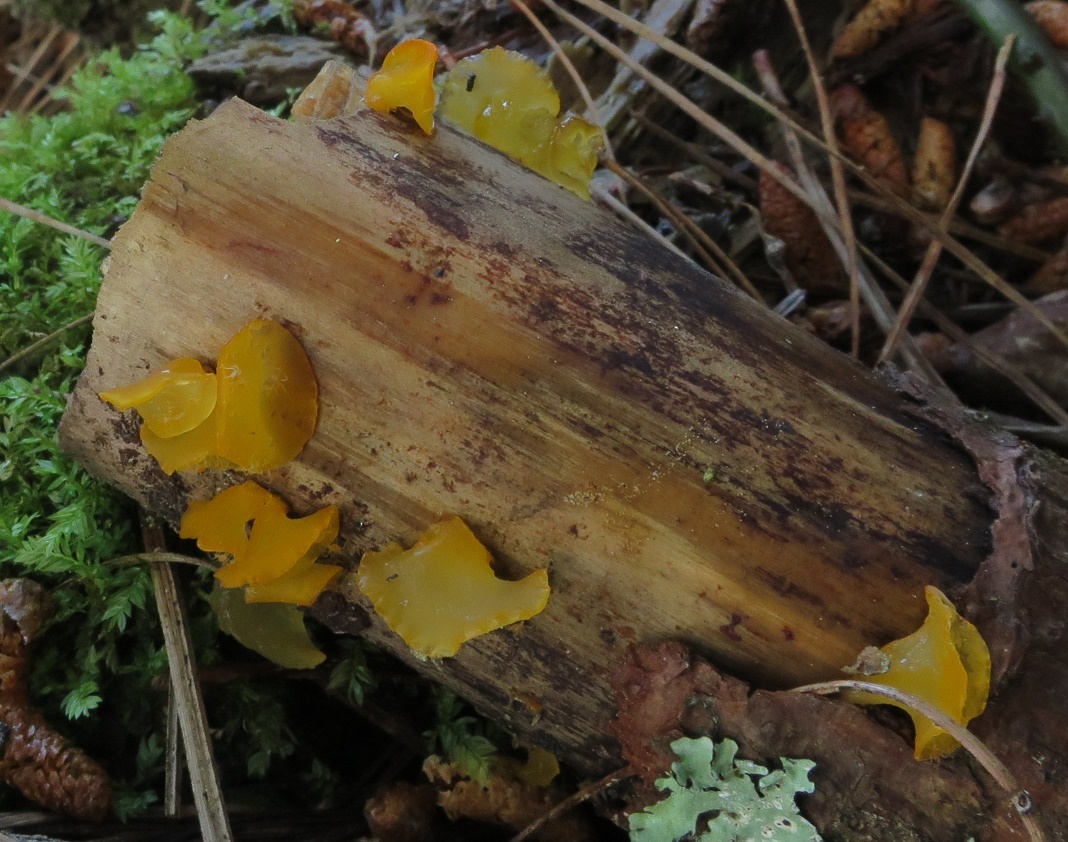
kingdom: Fungi
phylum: Basidiomycota
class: Dacrymycetes
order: Dacrymycetales
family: Dacrymycetaceae
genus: Heterotextus
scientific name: Heterotextus miltinus
